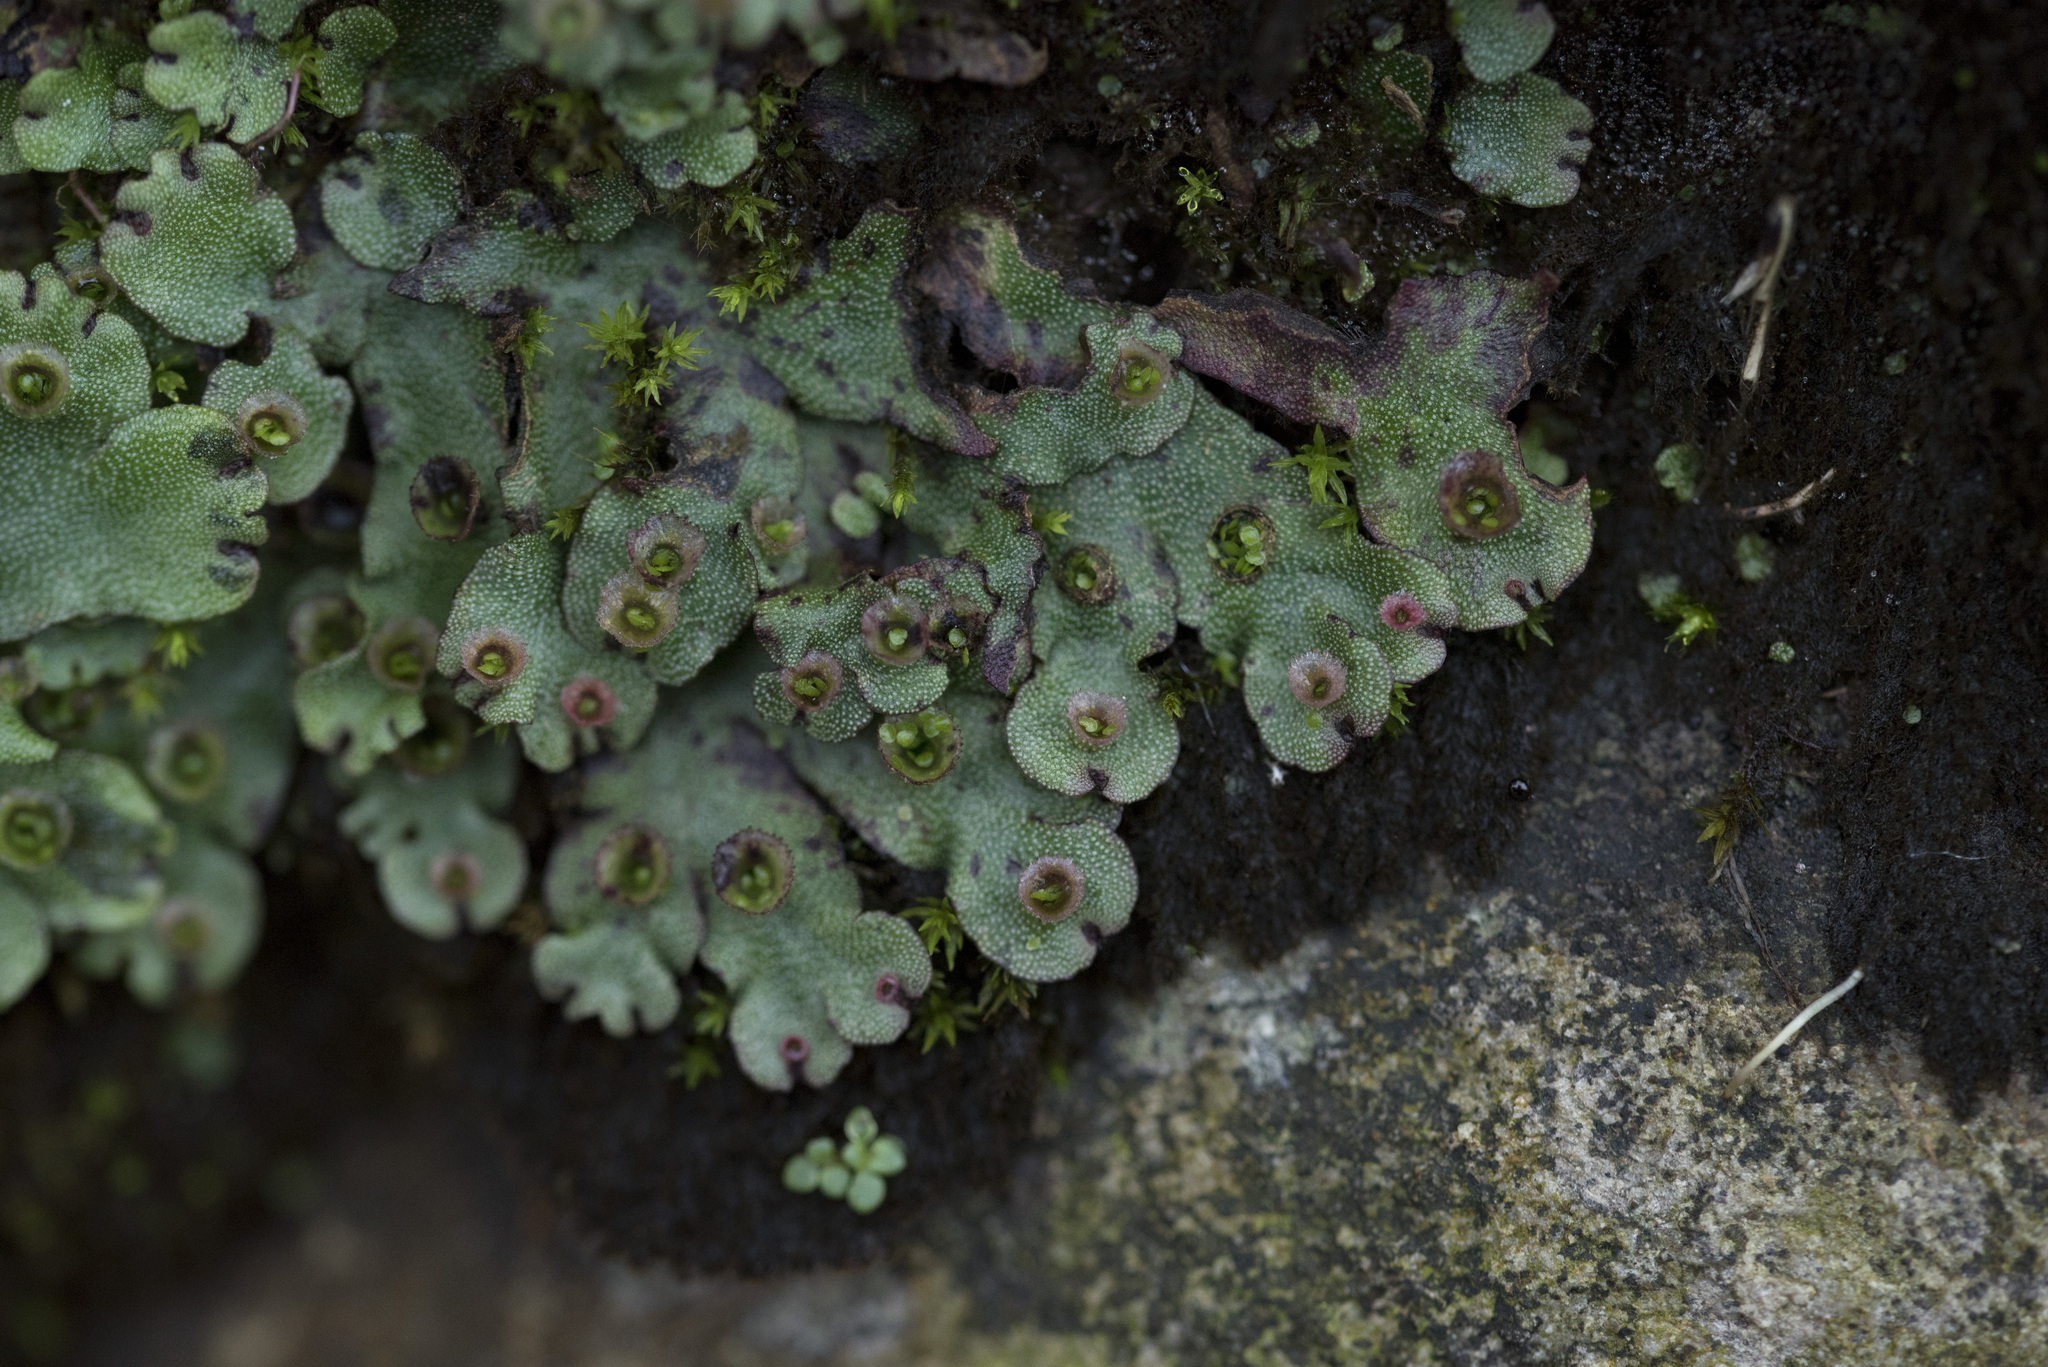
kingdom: Plantae
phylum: Marchantiophyta
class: Marchantiopsida
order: Marchantiales
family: Marchantiaceae
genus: Marchantia
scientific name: Marchantia paleacea
